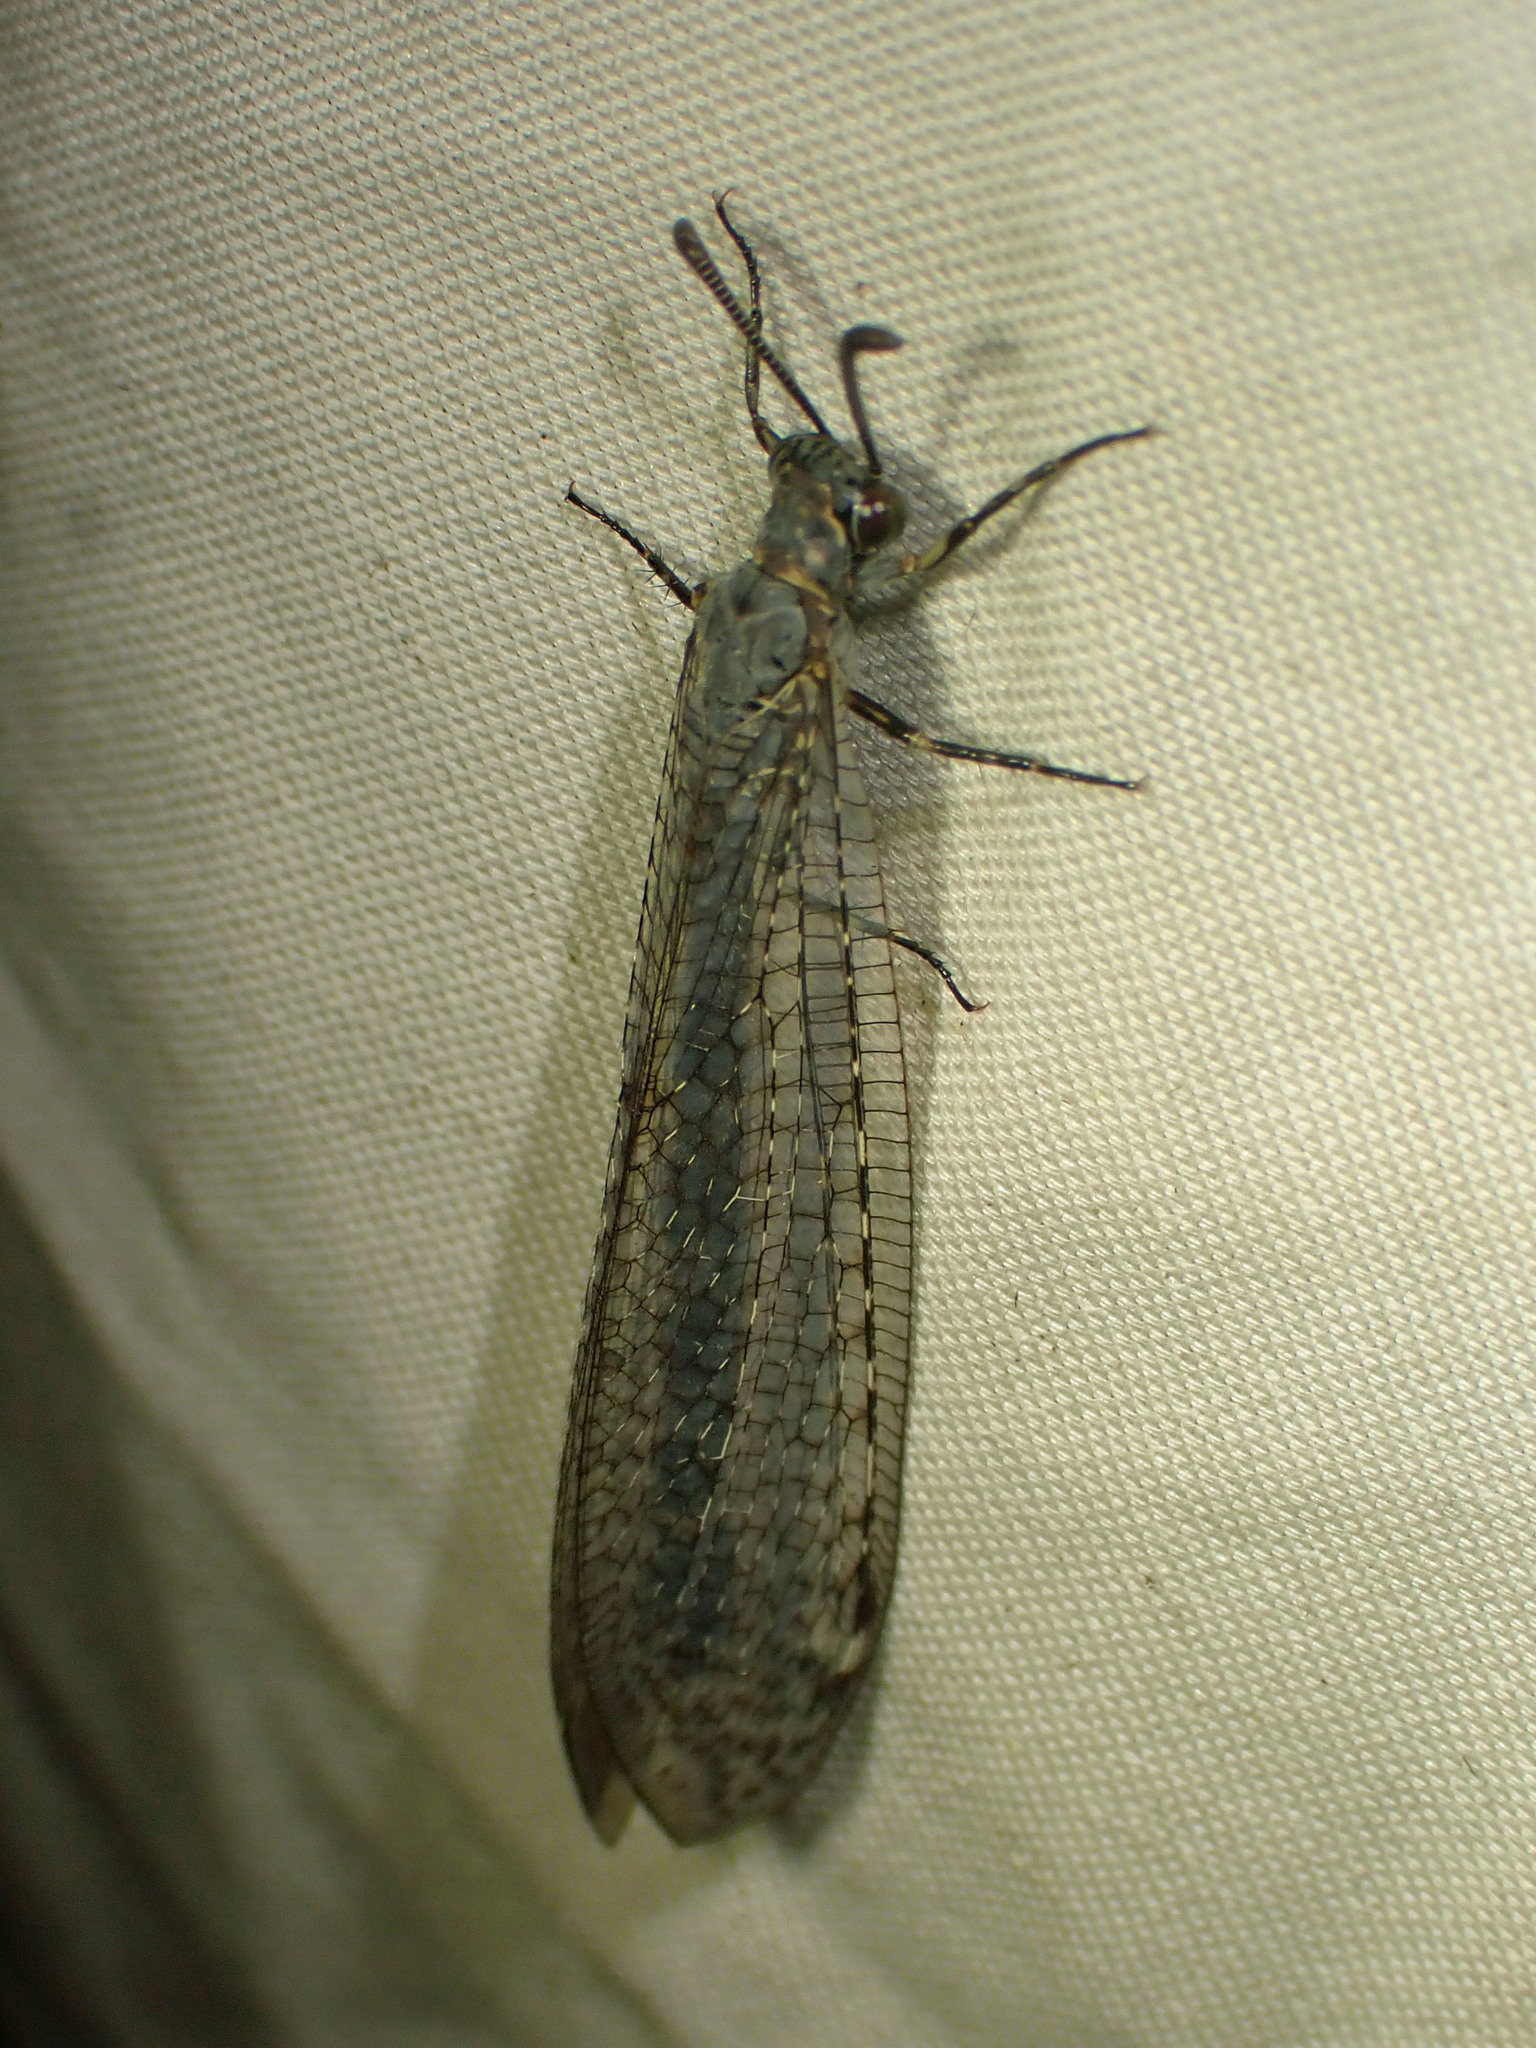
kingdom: Animalia
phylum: Arthropoda
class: Insecta
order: Neuroptera
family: Myrmeleontidae
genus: Myrmeleon
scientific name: Myrmeleon immaculatus
